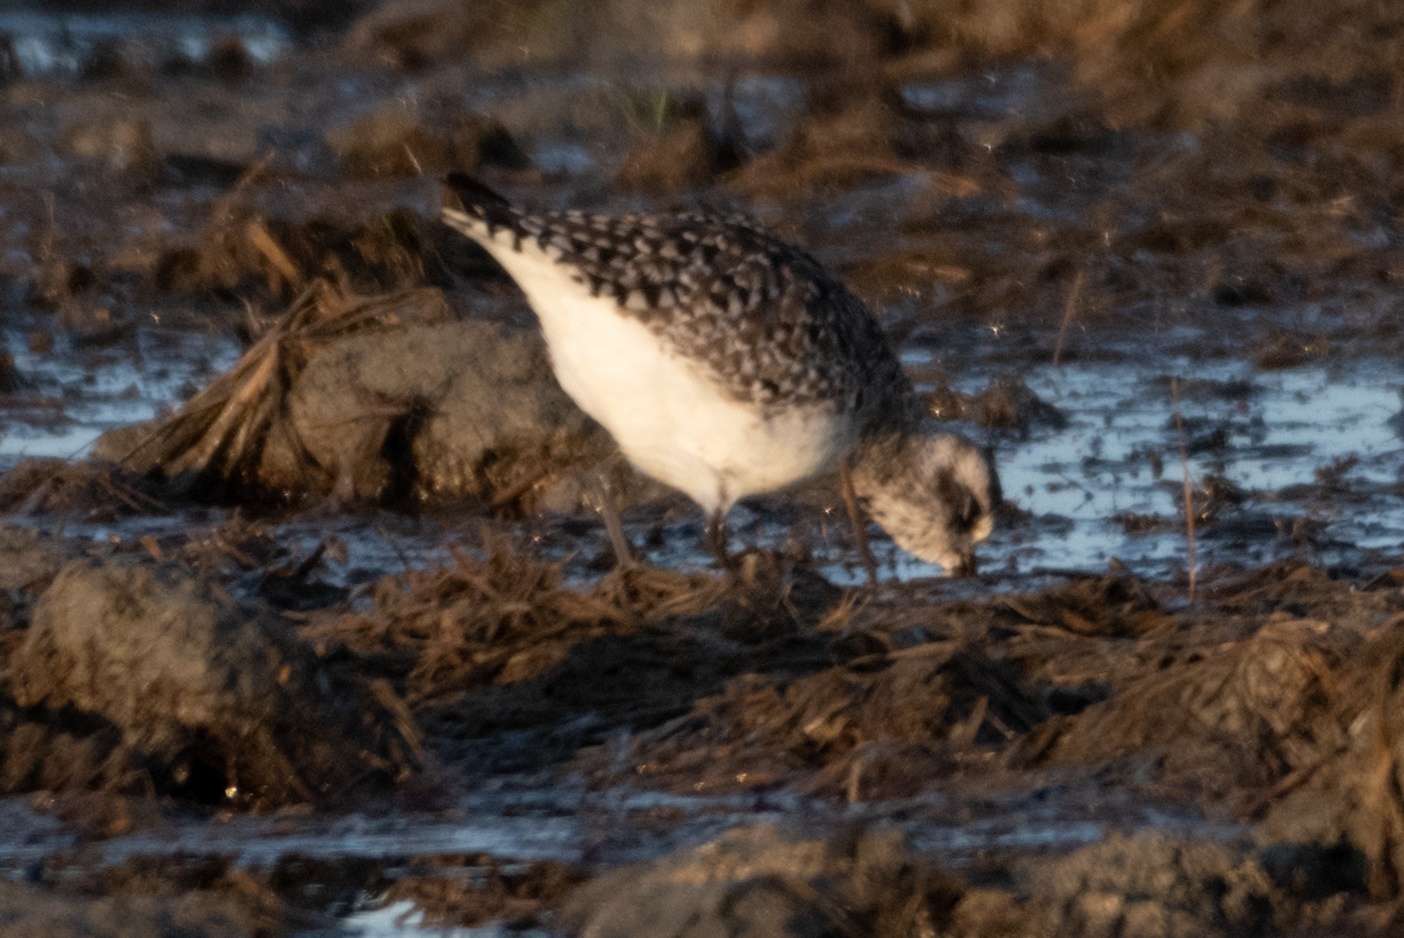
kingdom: Animalia
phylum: Chordata
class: Aves
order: Charadriiformes
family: Charadriidae
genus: Pluvialis
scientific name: Pluvialis squatarola
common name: Grey plover
